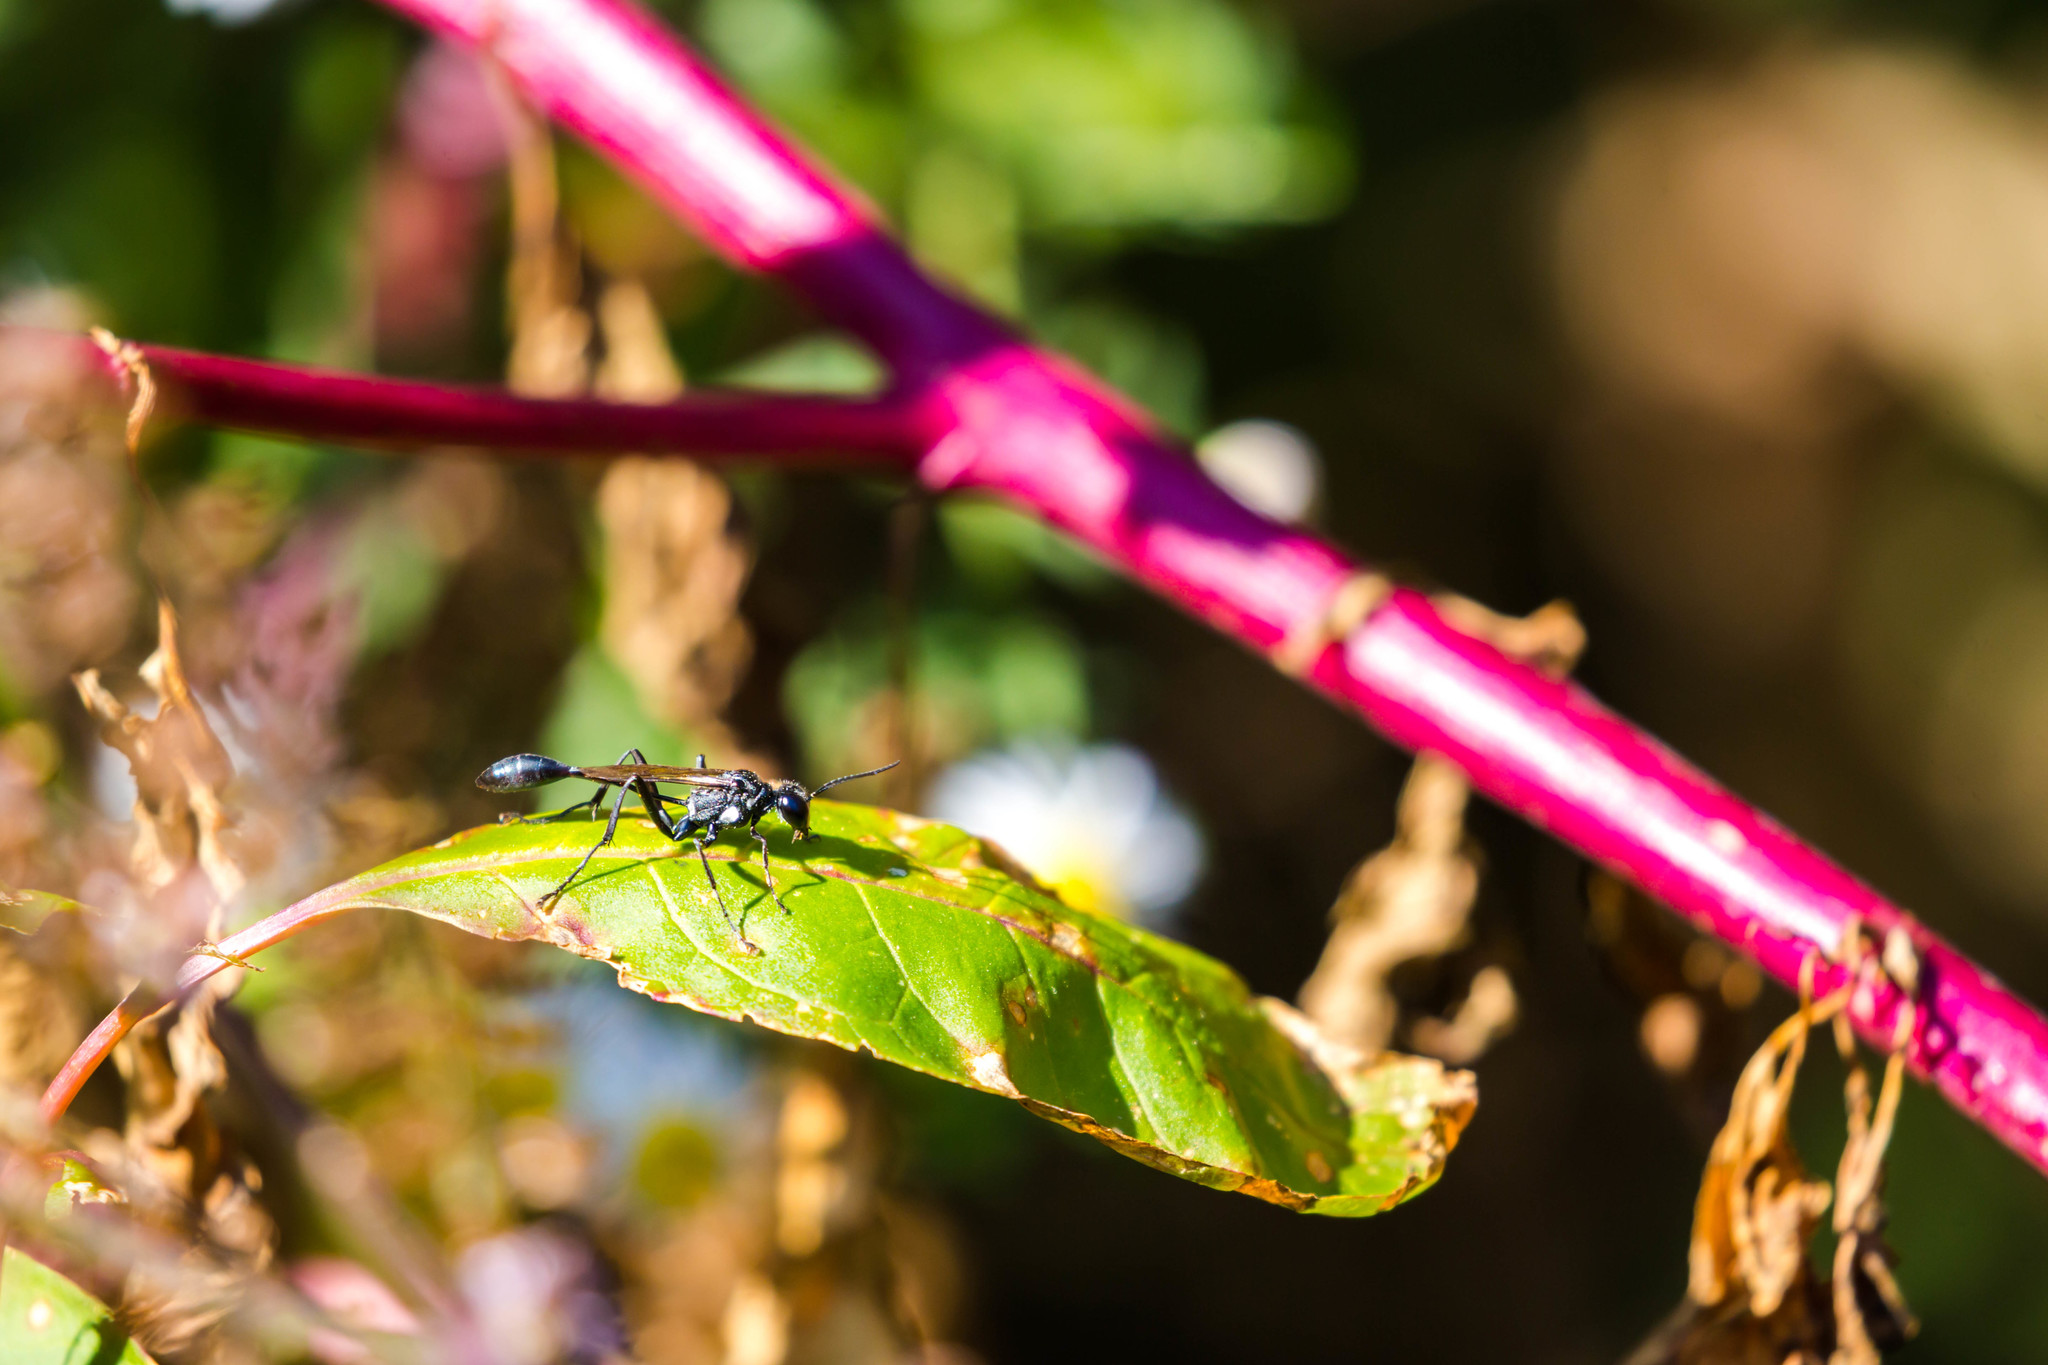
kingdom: Animalia
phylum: Arthropoda
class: Insecta
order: Hymenoptera
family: Sphecidae
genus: Eremnophila
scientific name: Eremnophila aureonotata
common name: Gold-marked thread-waisted wasp
